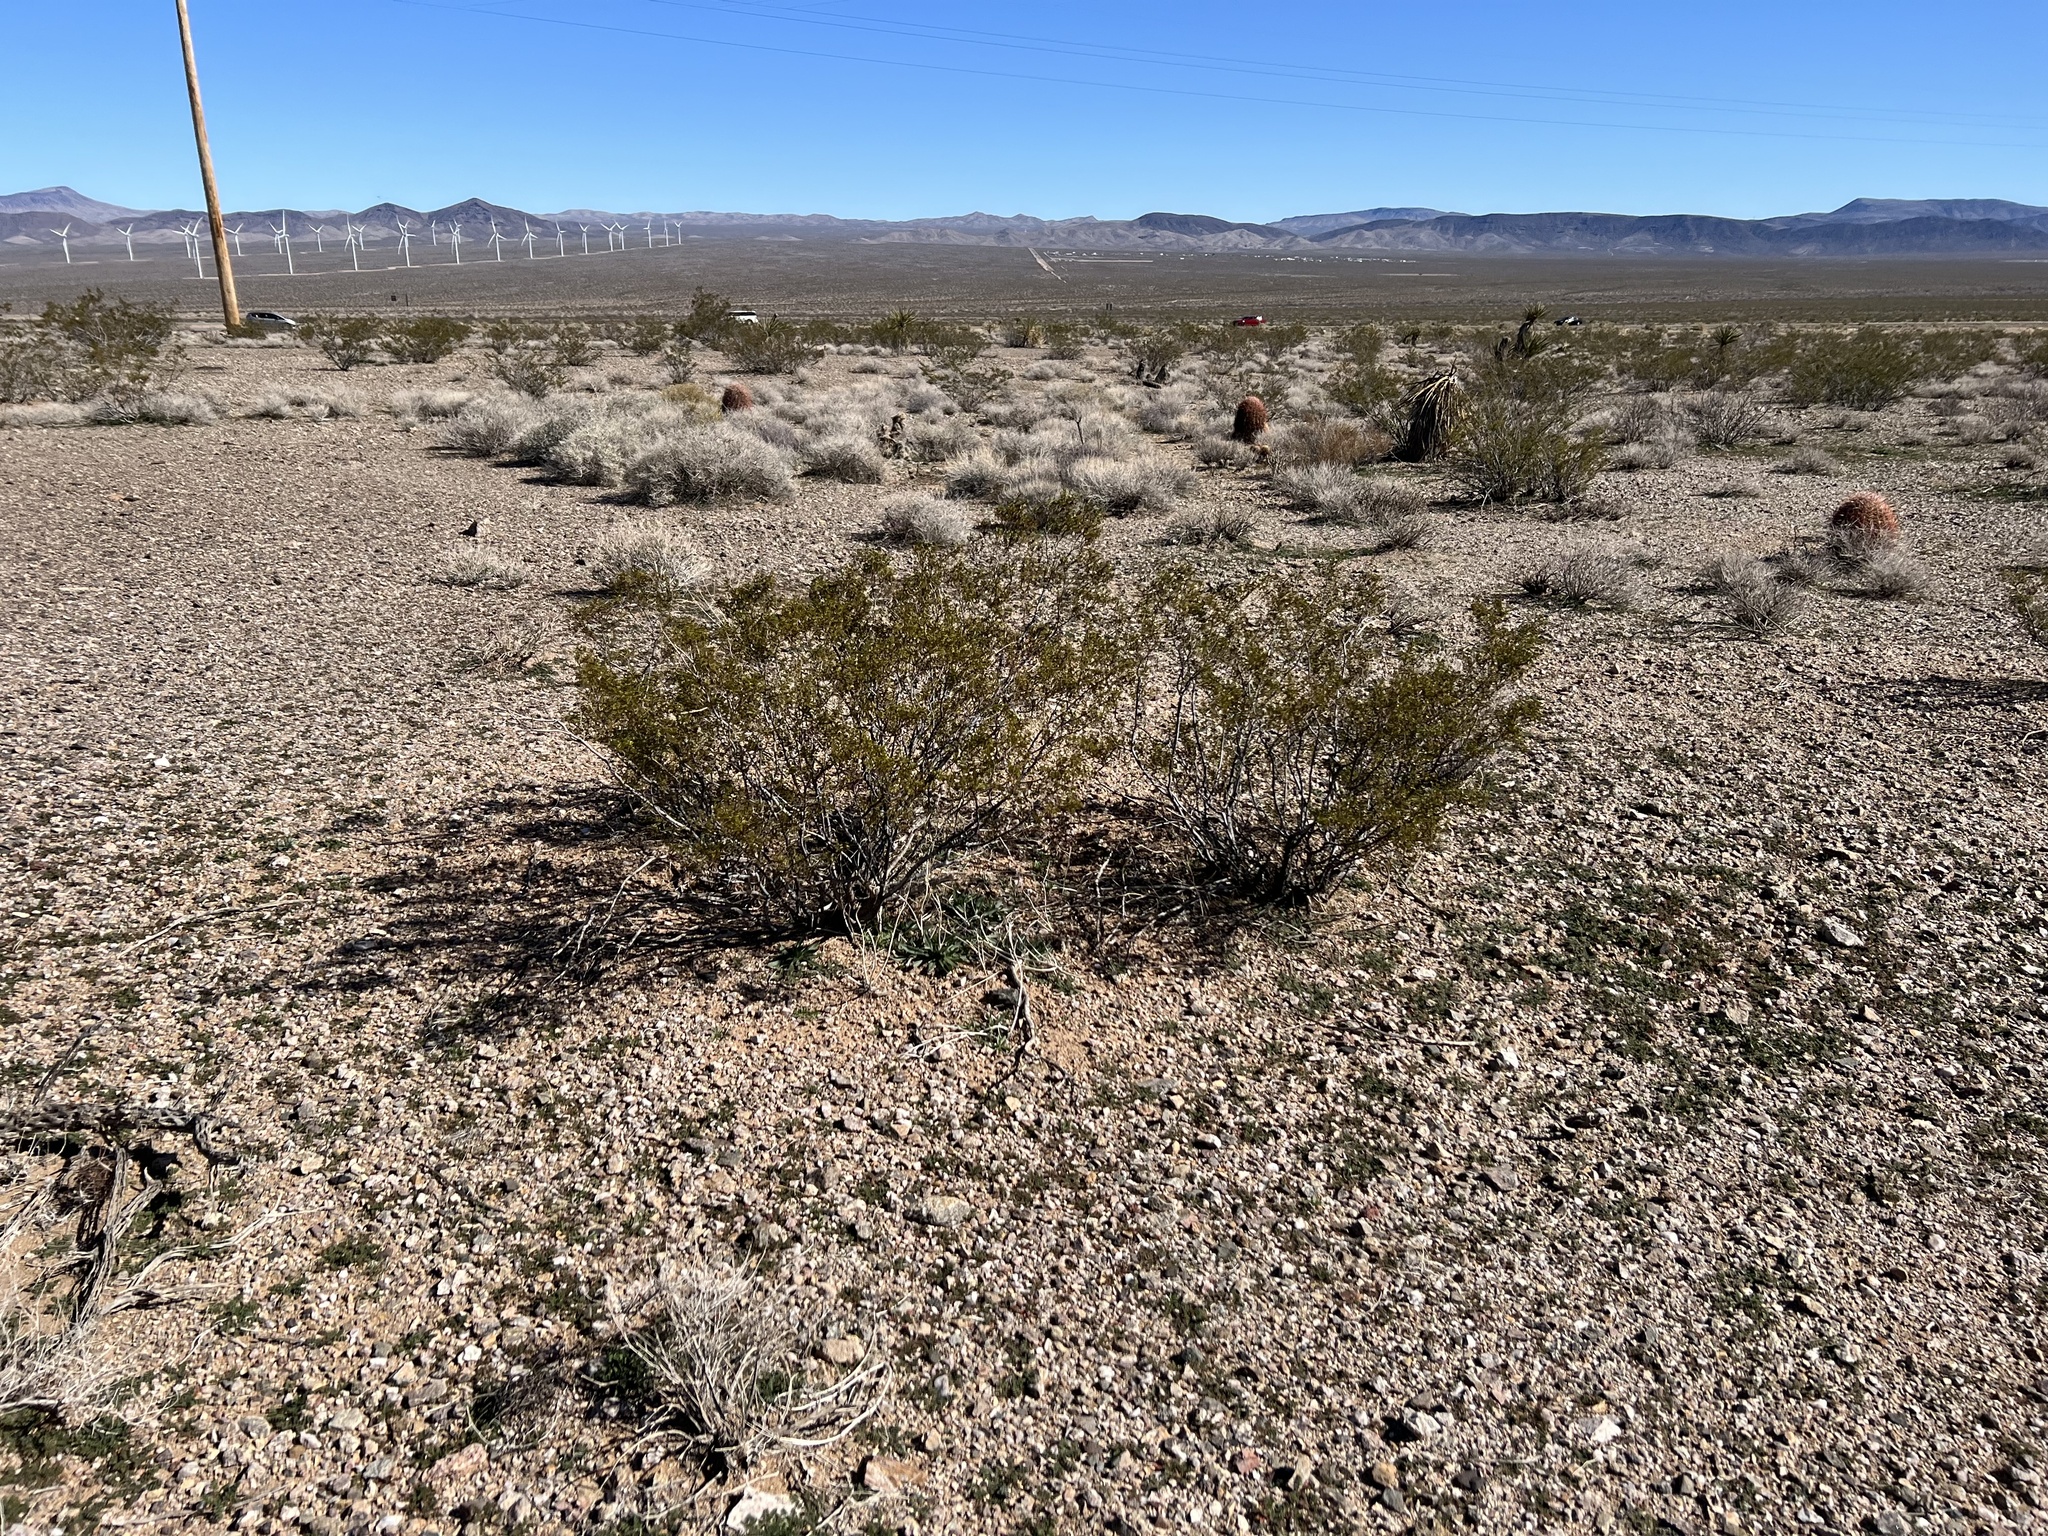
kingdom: Plantae
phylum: Tracheophyta
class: Magnoliopsida
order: Zygophyllales
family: Zygophyllaceae
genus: Larrea
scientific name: Larrea tridentata
